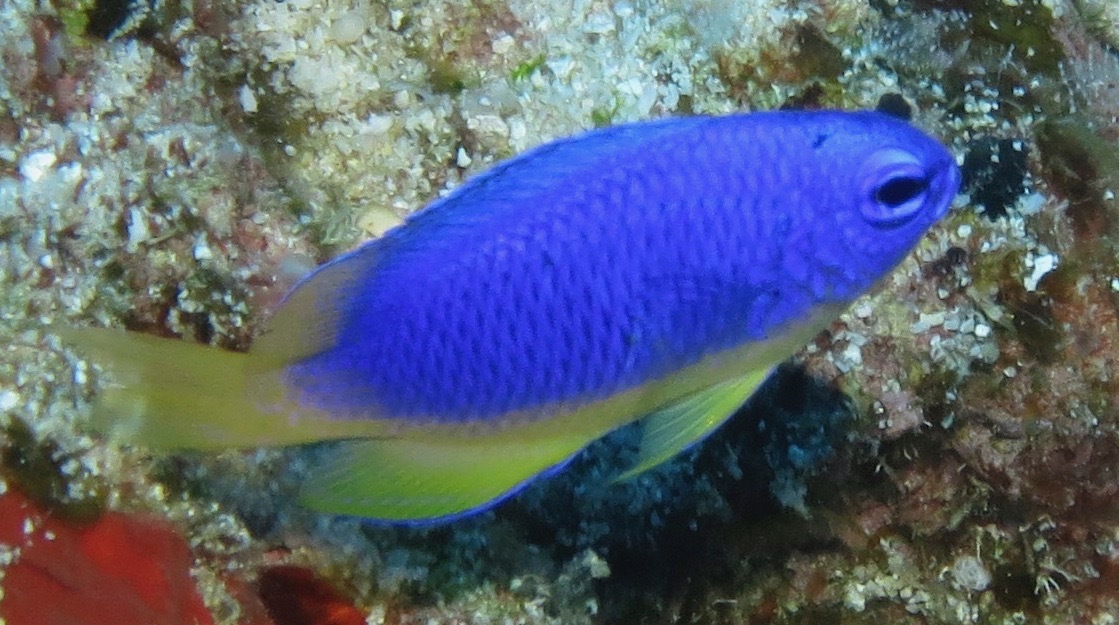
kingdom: Animalia
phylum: Chordata
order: Perciformes
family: Pomacentridae
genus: Pomacentrus
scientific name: Pomacentrus coelestis
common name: Neon damsel
